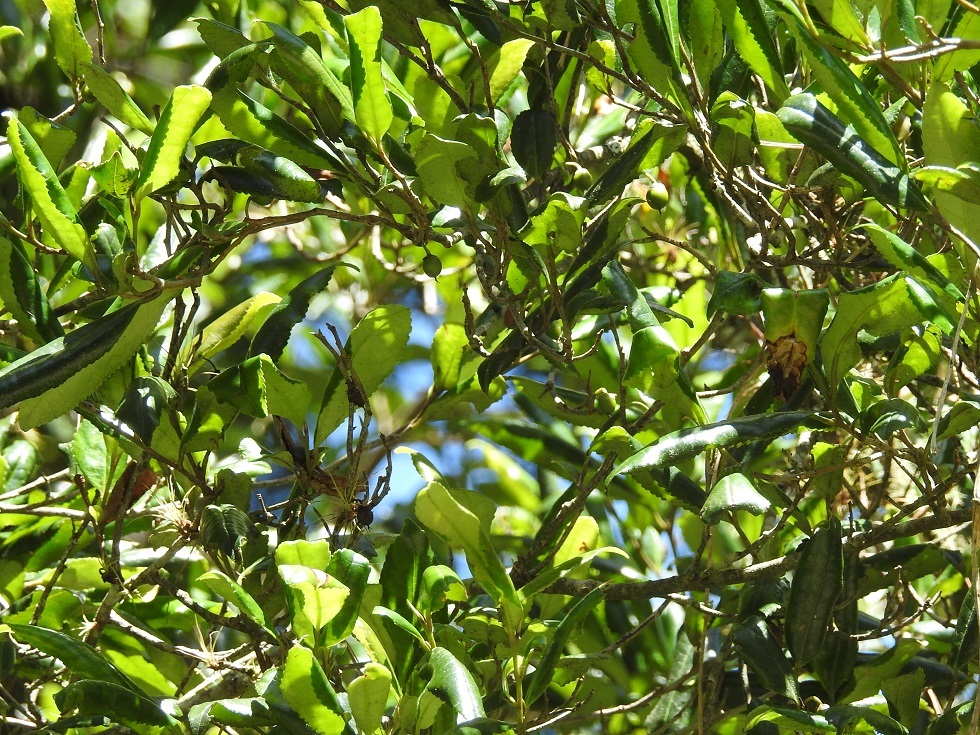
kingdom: Plantae
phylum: Tracheophyta
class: Magnoliopsida
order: Ericales
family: Pentaphylacaceae
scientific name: Pentaphylacaceae
